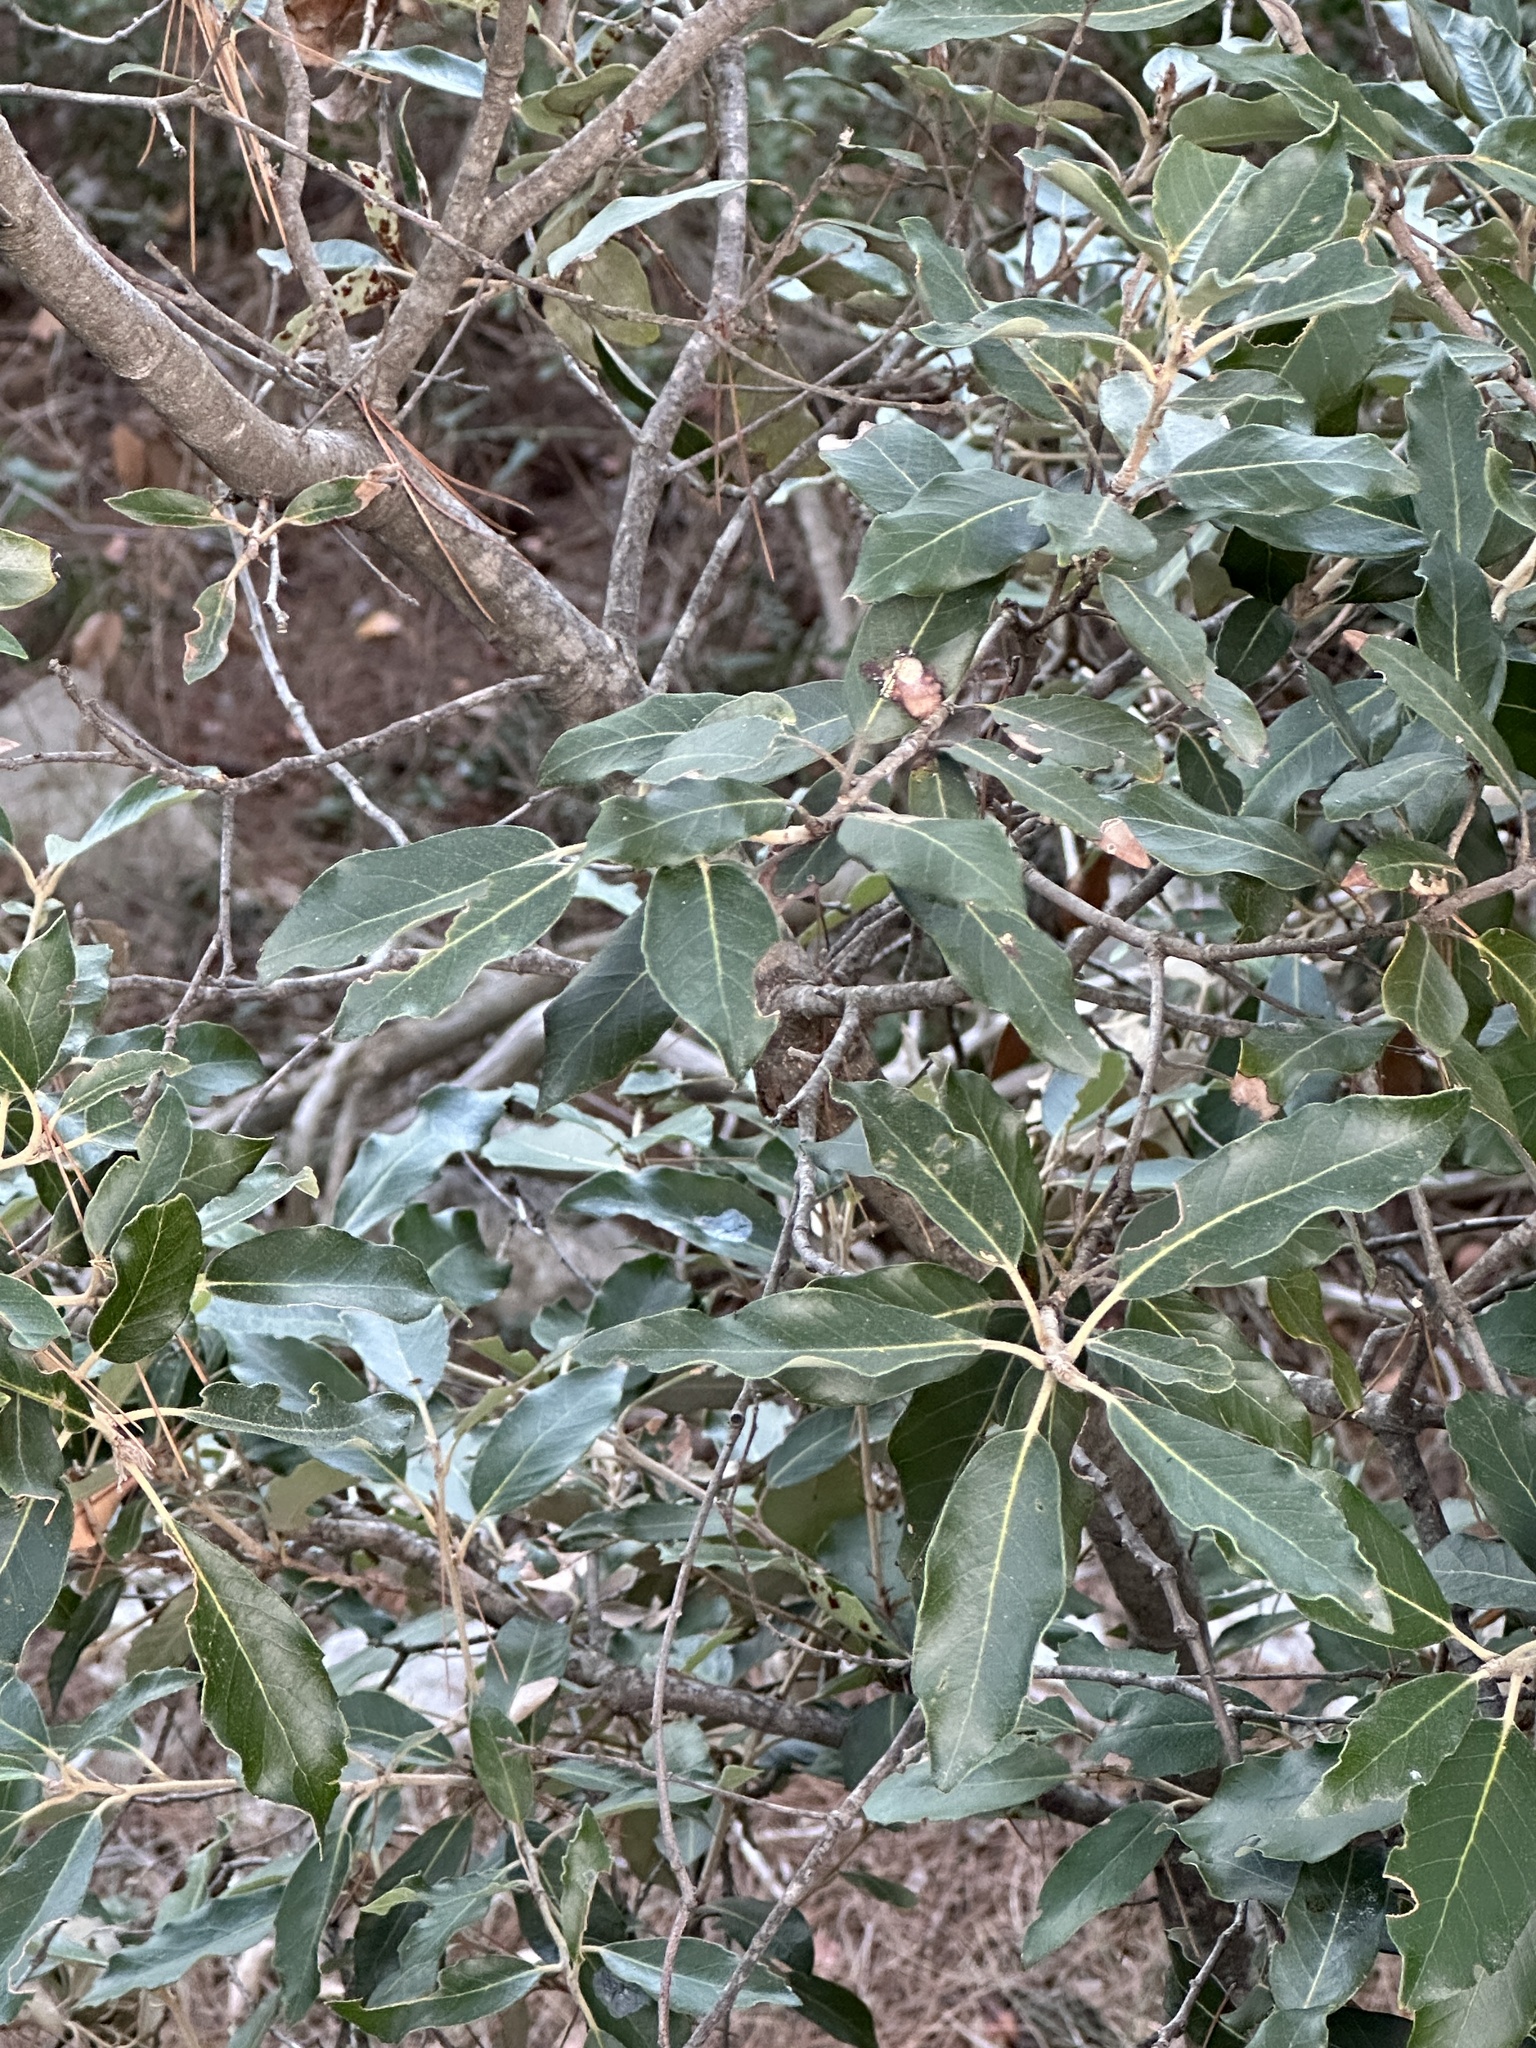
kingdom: Plantae
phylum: Tracheophyta
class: Magnoliopsida
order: Fagales
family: Fagaceae
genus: Quercus
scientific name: Quercus ilex
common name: Evergreen oak
